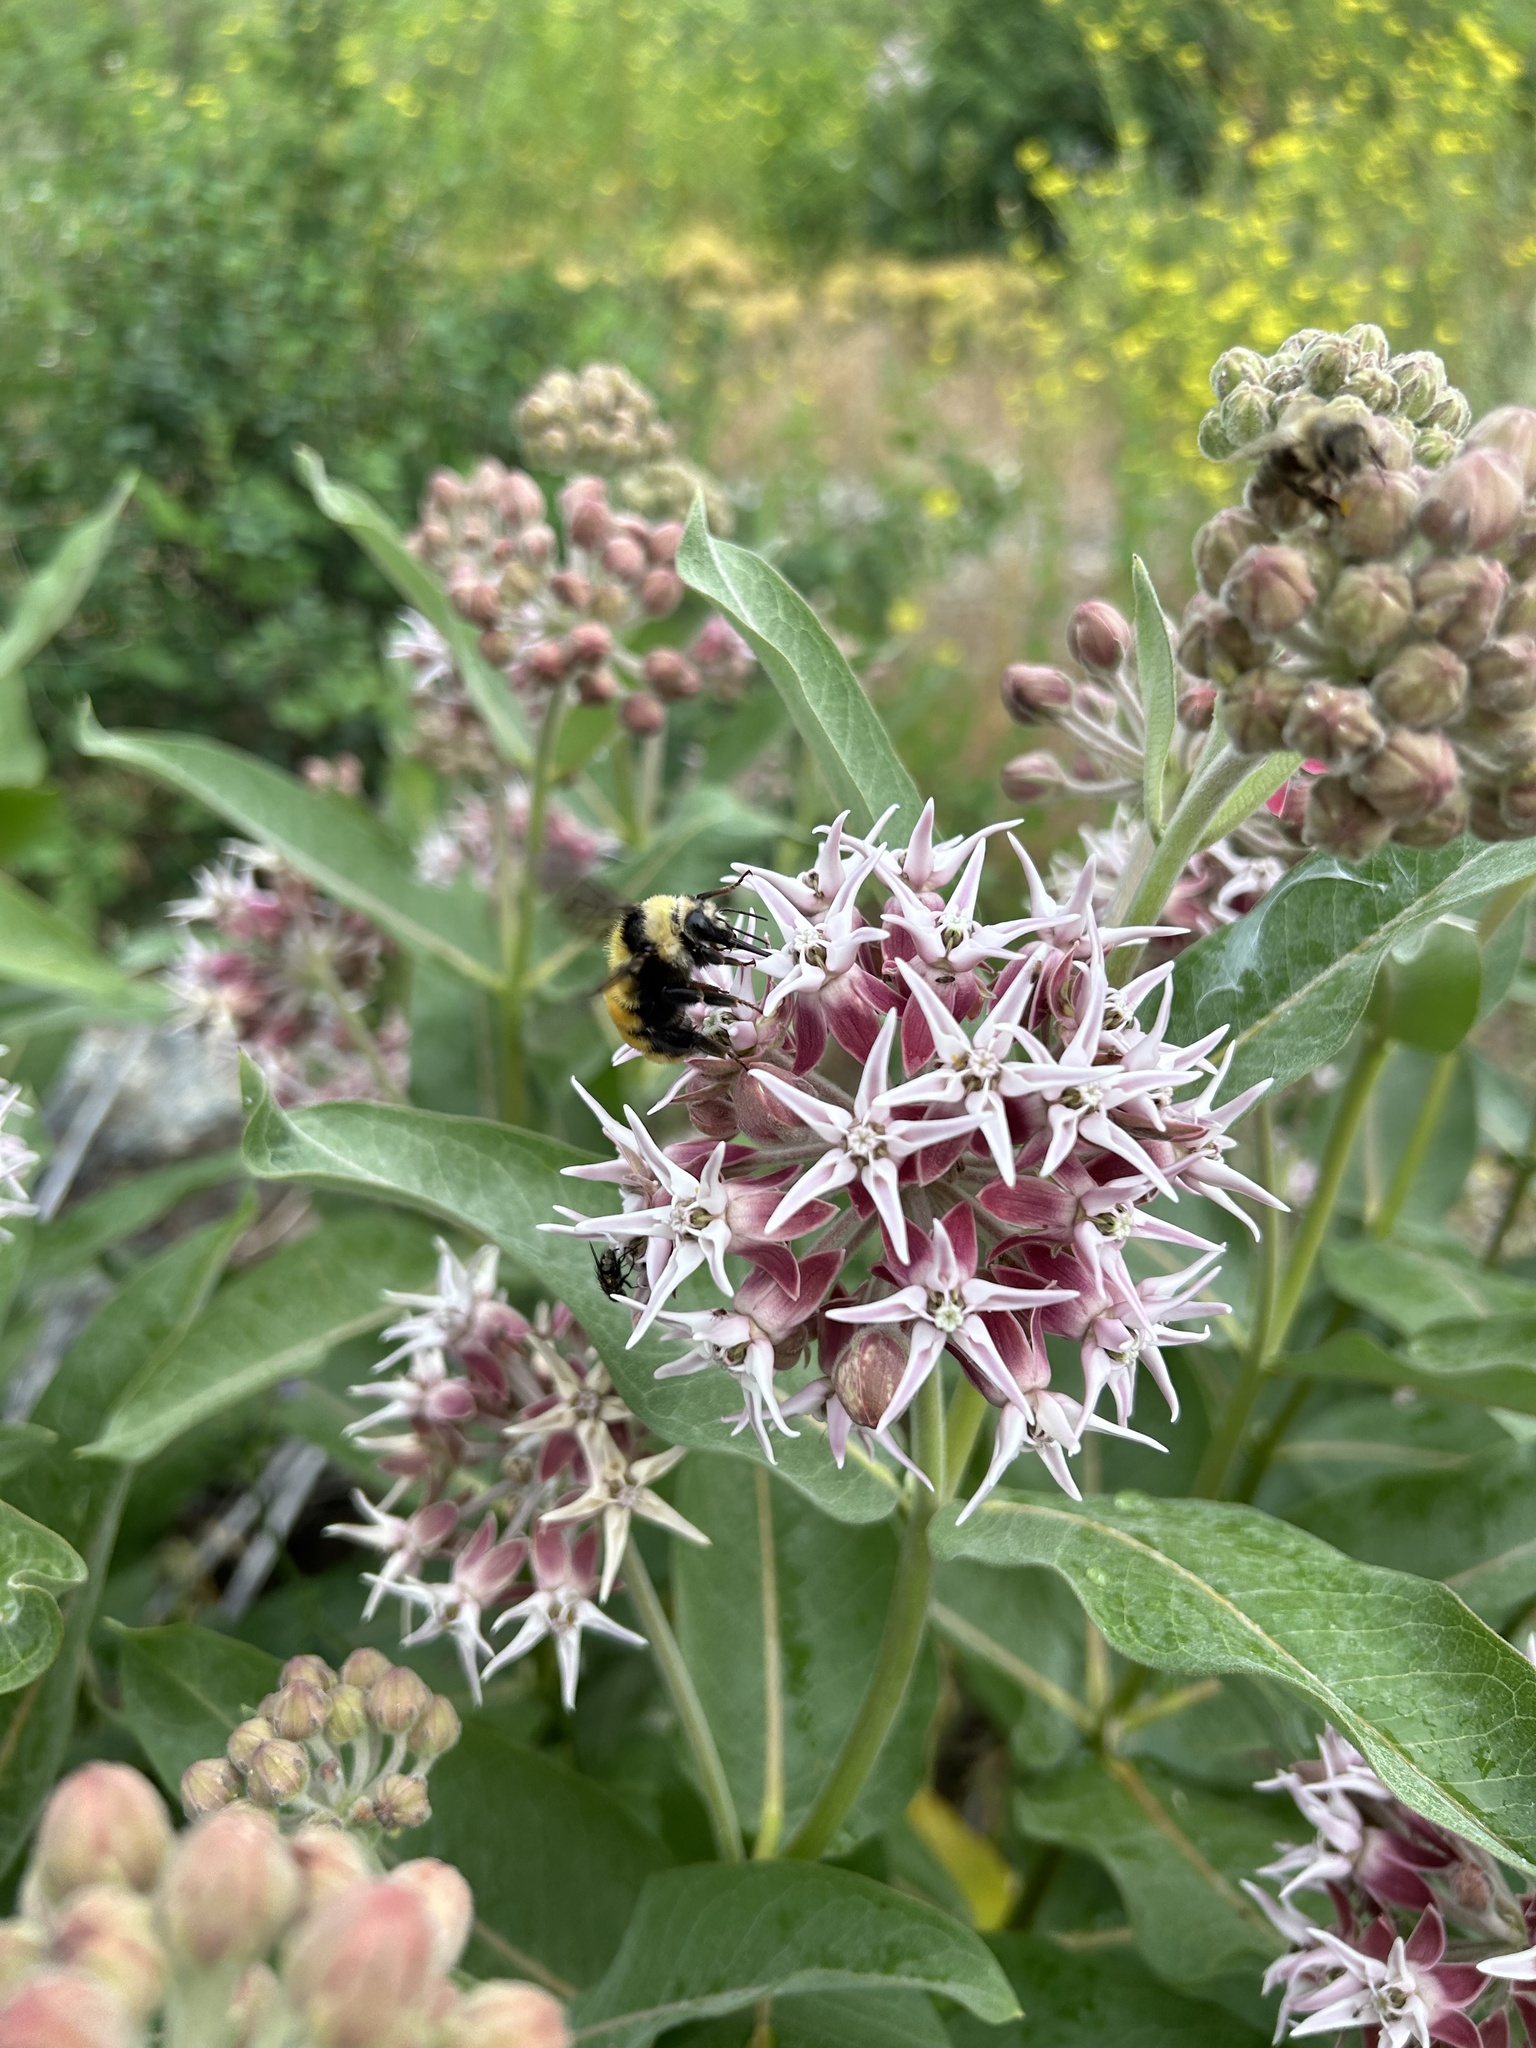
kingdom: Animalia
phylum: Arthropoda
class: Insecta
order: Hymenoptera
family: Apidae
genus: Bombus
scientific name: Bombus appositus
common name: White-shouldered bumble bee
